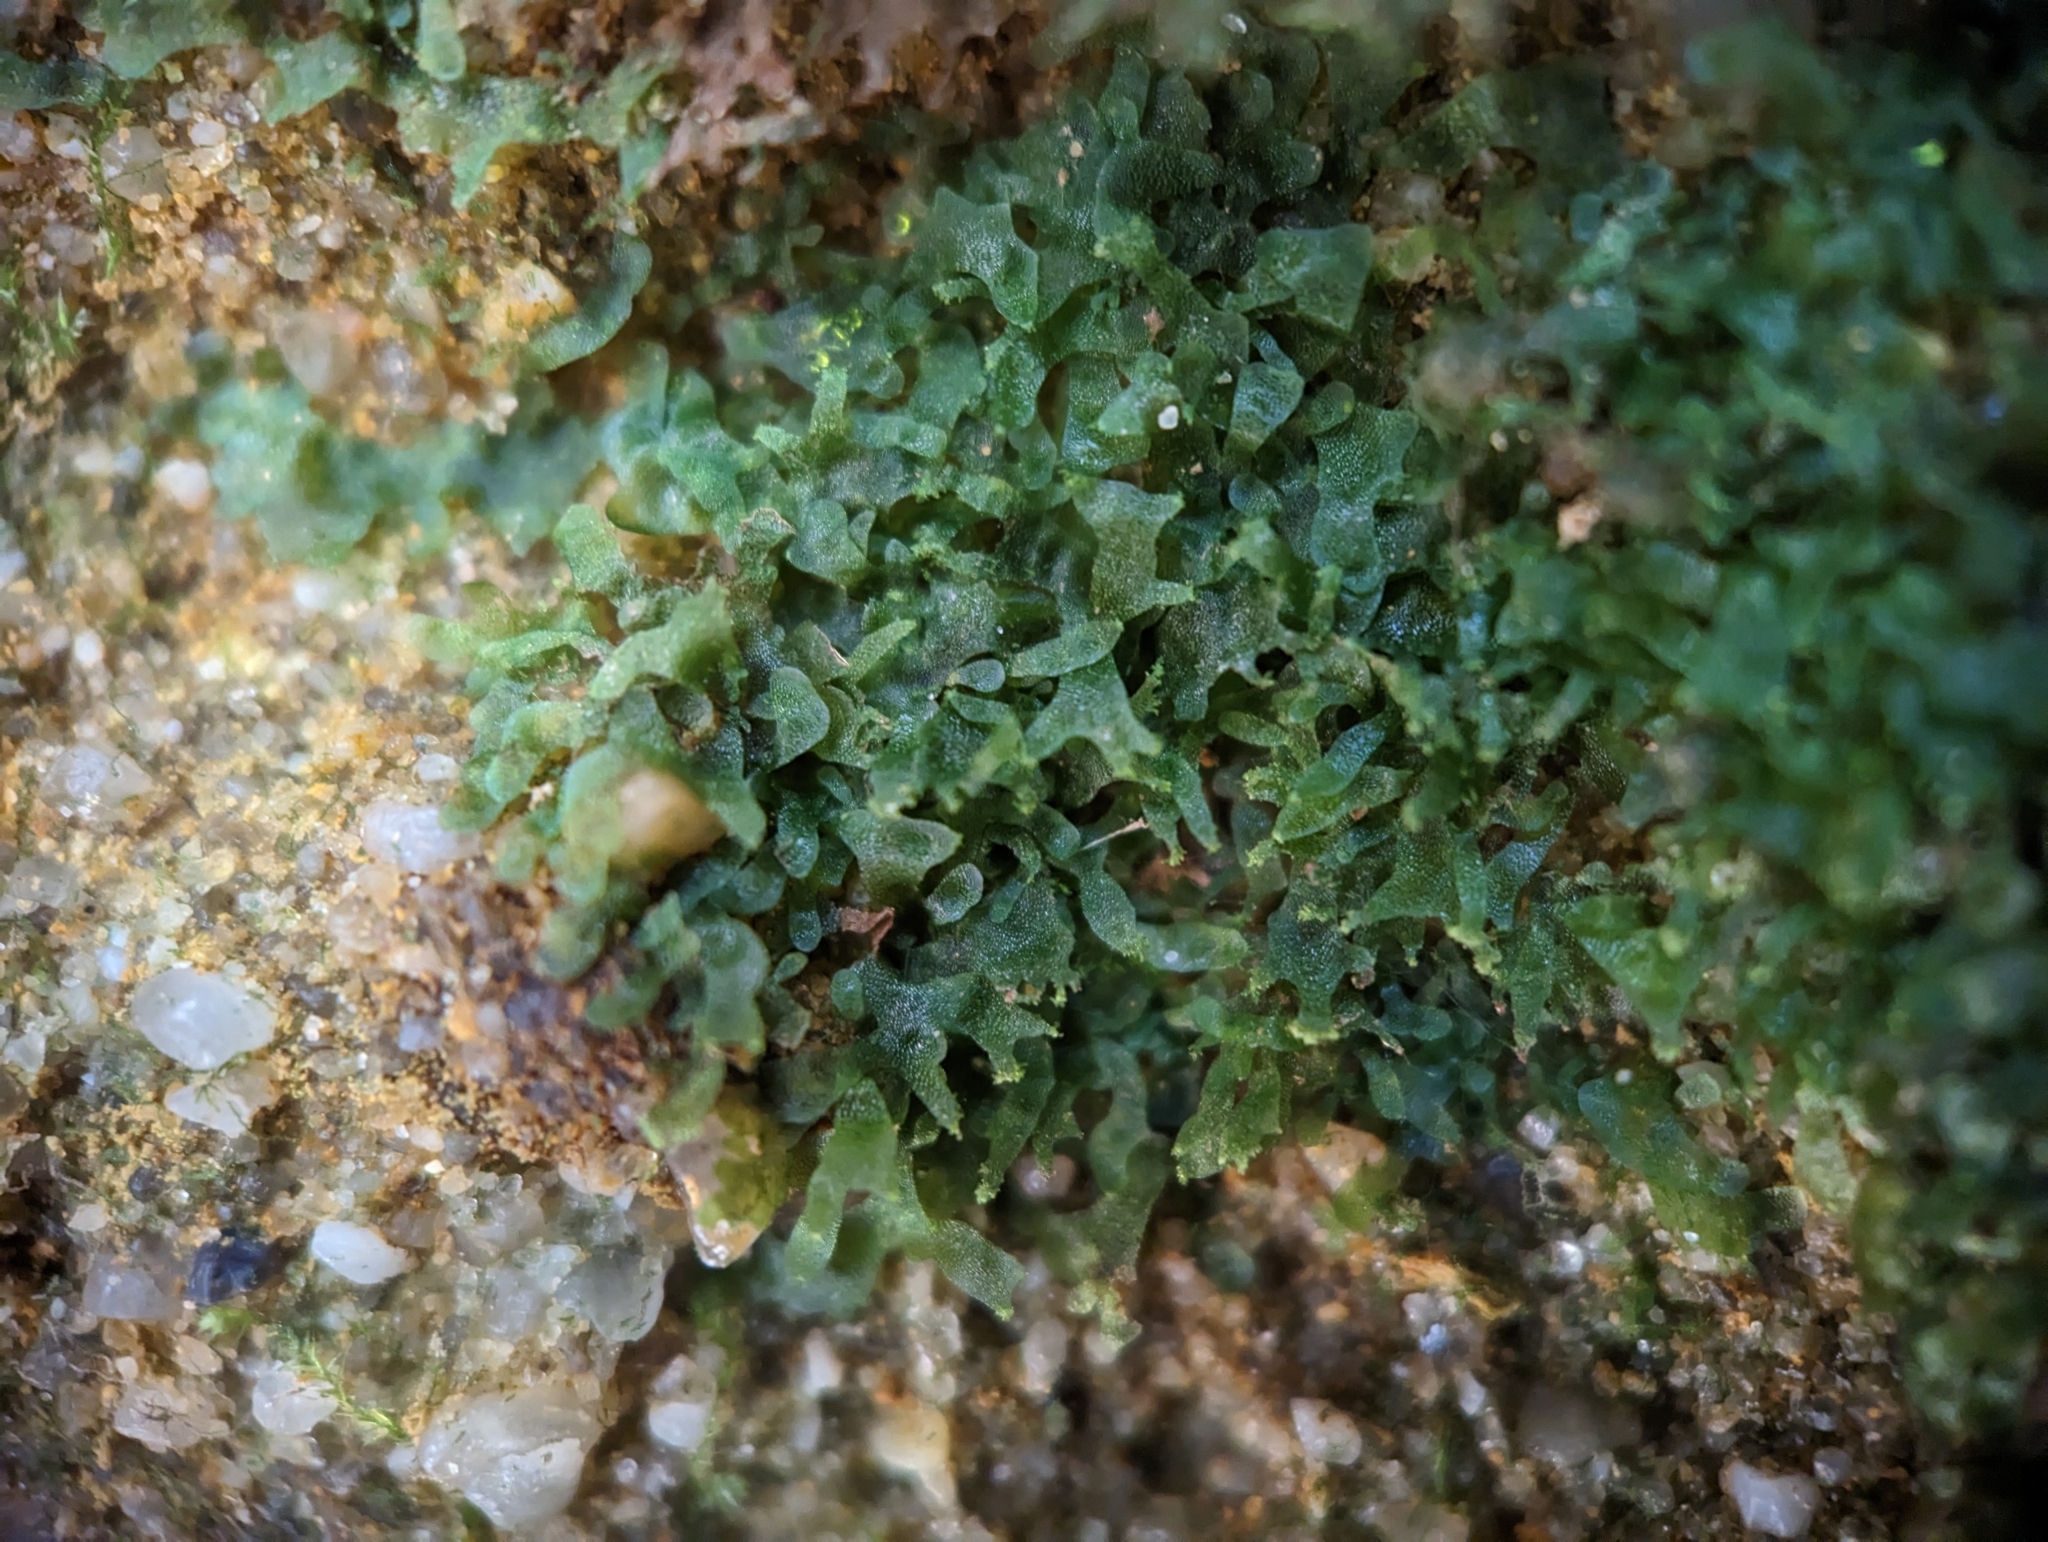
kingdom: Plantae
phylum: Tracheophyta
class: Polypodiopsida
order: Polypodiales
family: Pteridaceae
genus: Vittaria
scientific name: Vittaria appalachiana
